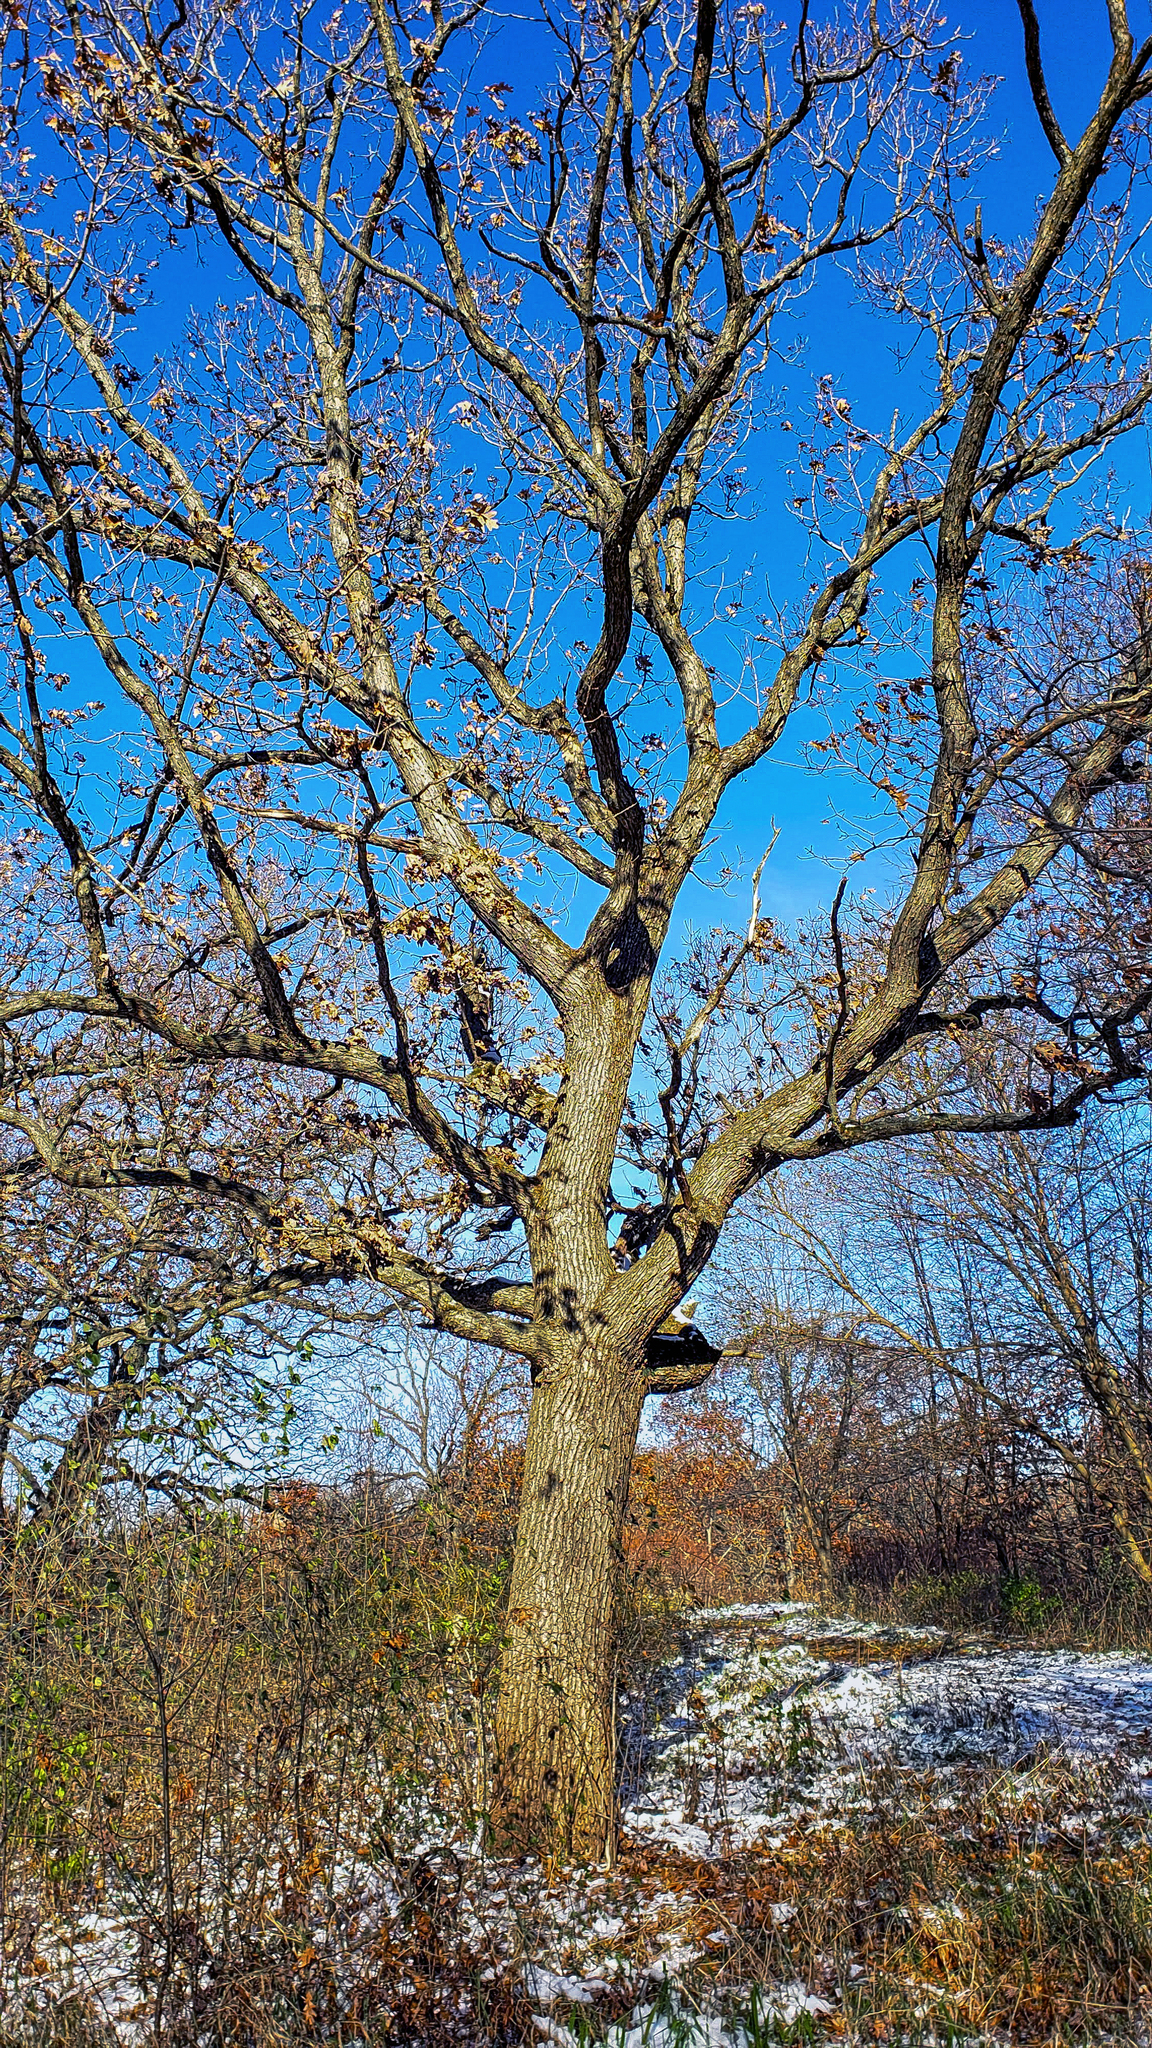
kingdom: Plantae
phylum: Tracheophyta
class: Magnoliopsida
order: Fagales
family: Fagaceae
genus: Quercus
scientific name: Quercus alba
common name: White oak
